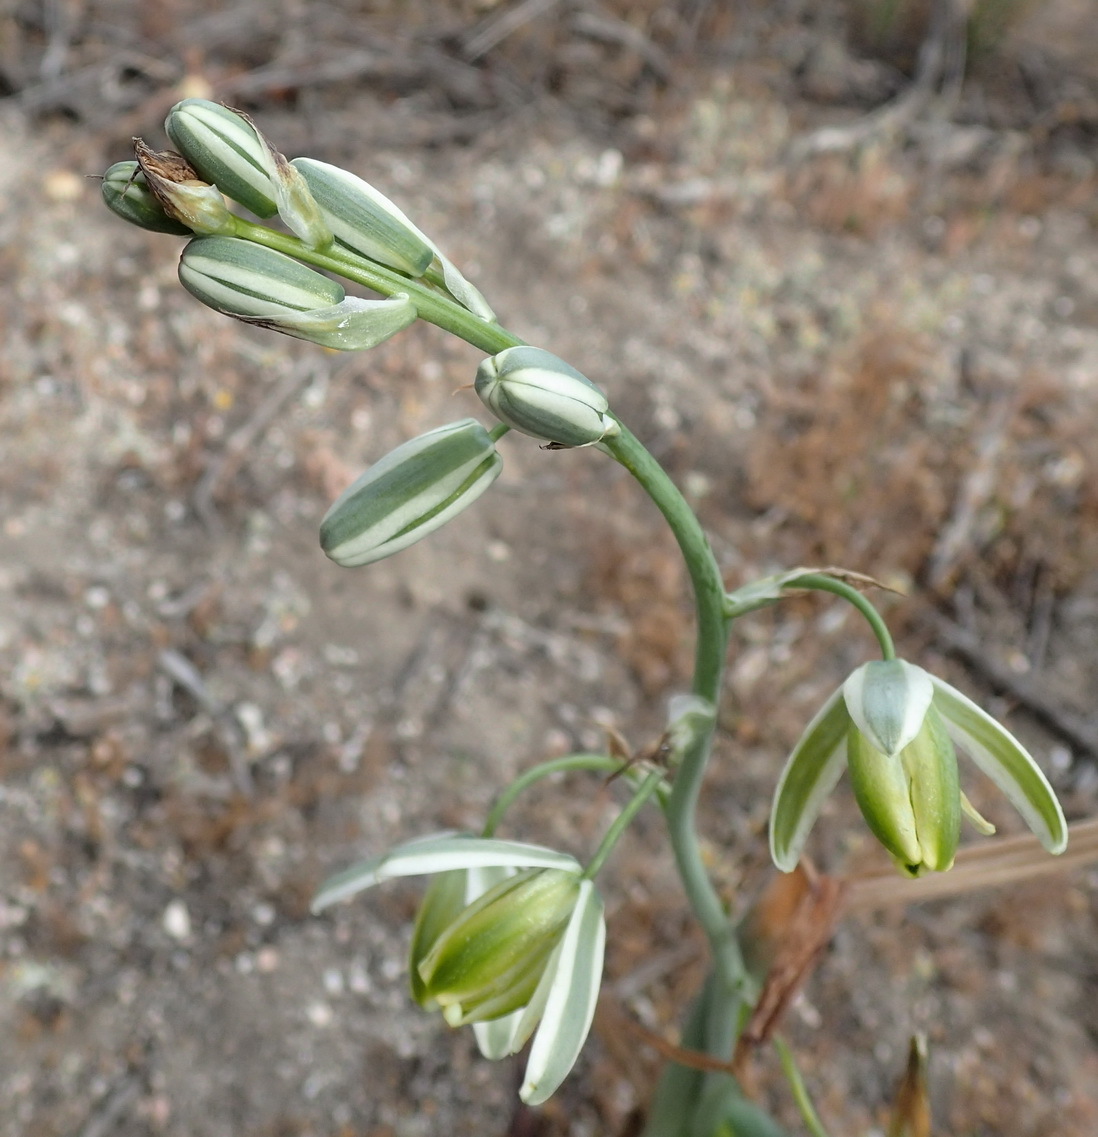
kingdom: Plantae
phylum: Tracheophyta
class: Liliopsida
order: Asparagales
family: Asparagaceae
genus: Albuca
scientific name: Albuca canadensis
